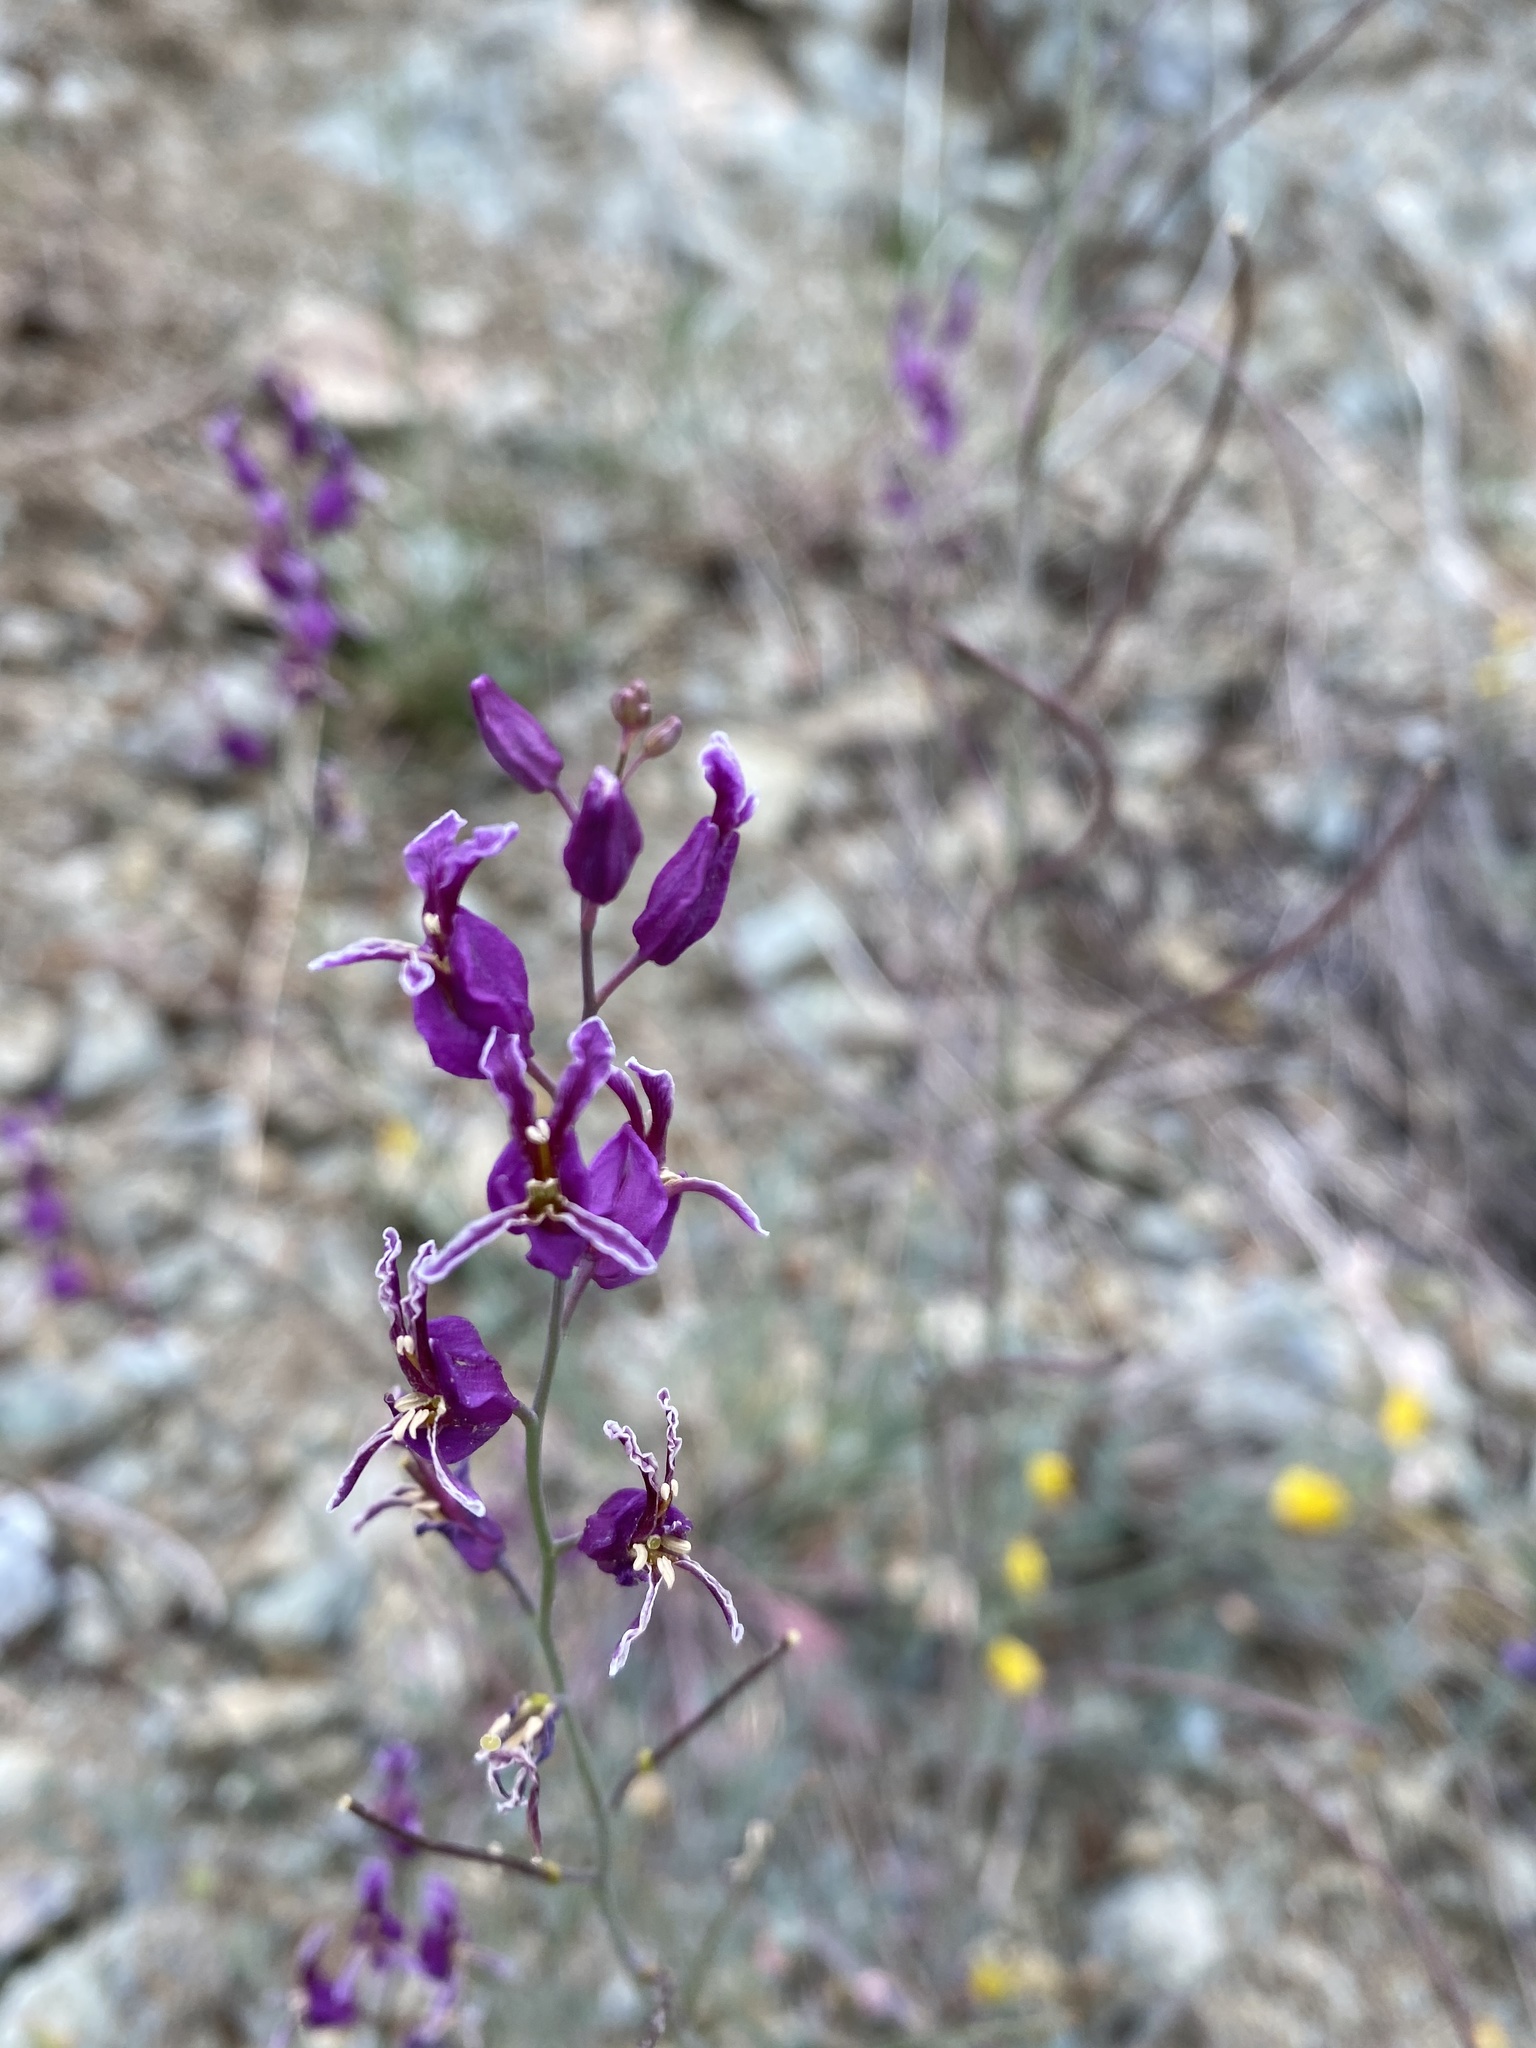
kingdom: Plantae
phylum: Tracheophyta
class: Magnoliopsida
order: Brassicales
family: Brassicaceae
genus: Streptanthus
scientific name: Streptanthus glandulosus
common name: Jewel-flower
